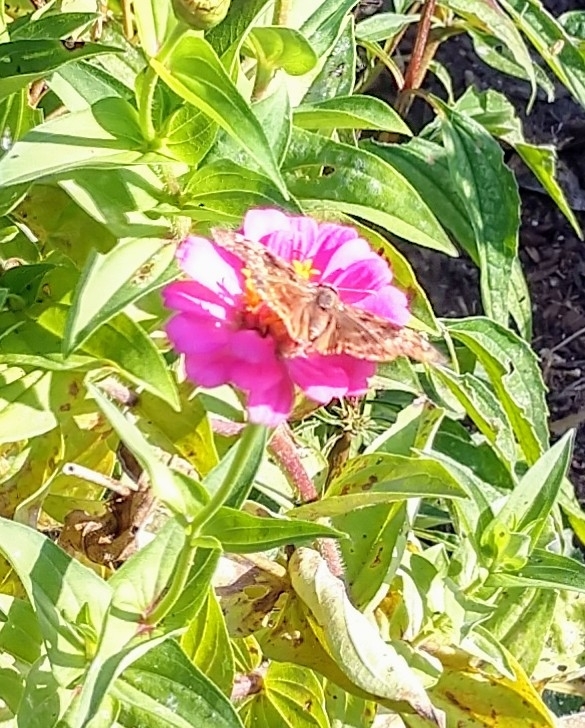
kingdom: Animalia
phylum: Arthropoda
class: Insecta
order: Lepidoptera
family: Hesperiidae
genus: Erynnis
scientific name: Erynnis horatius
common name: Horace's duskywing
